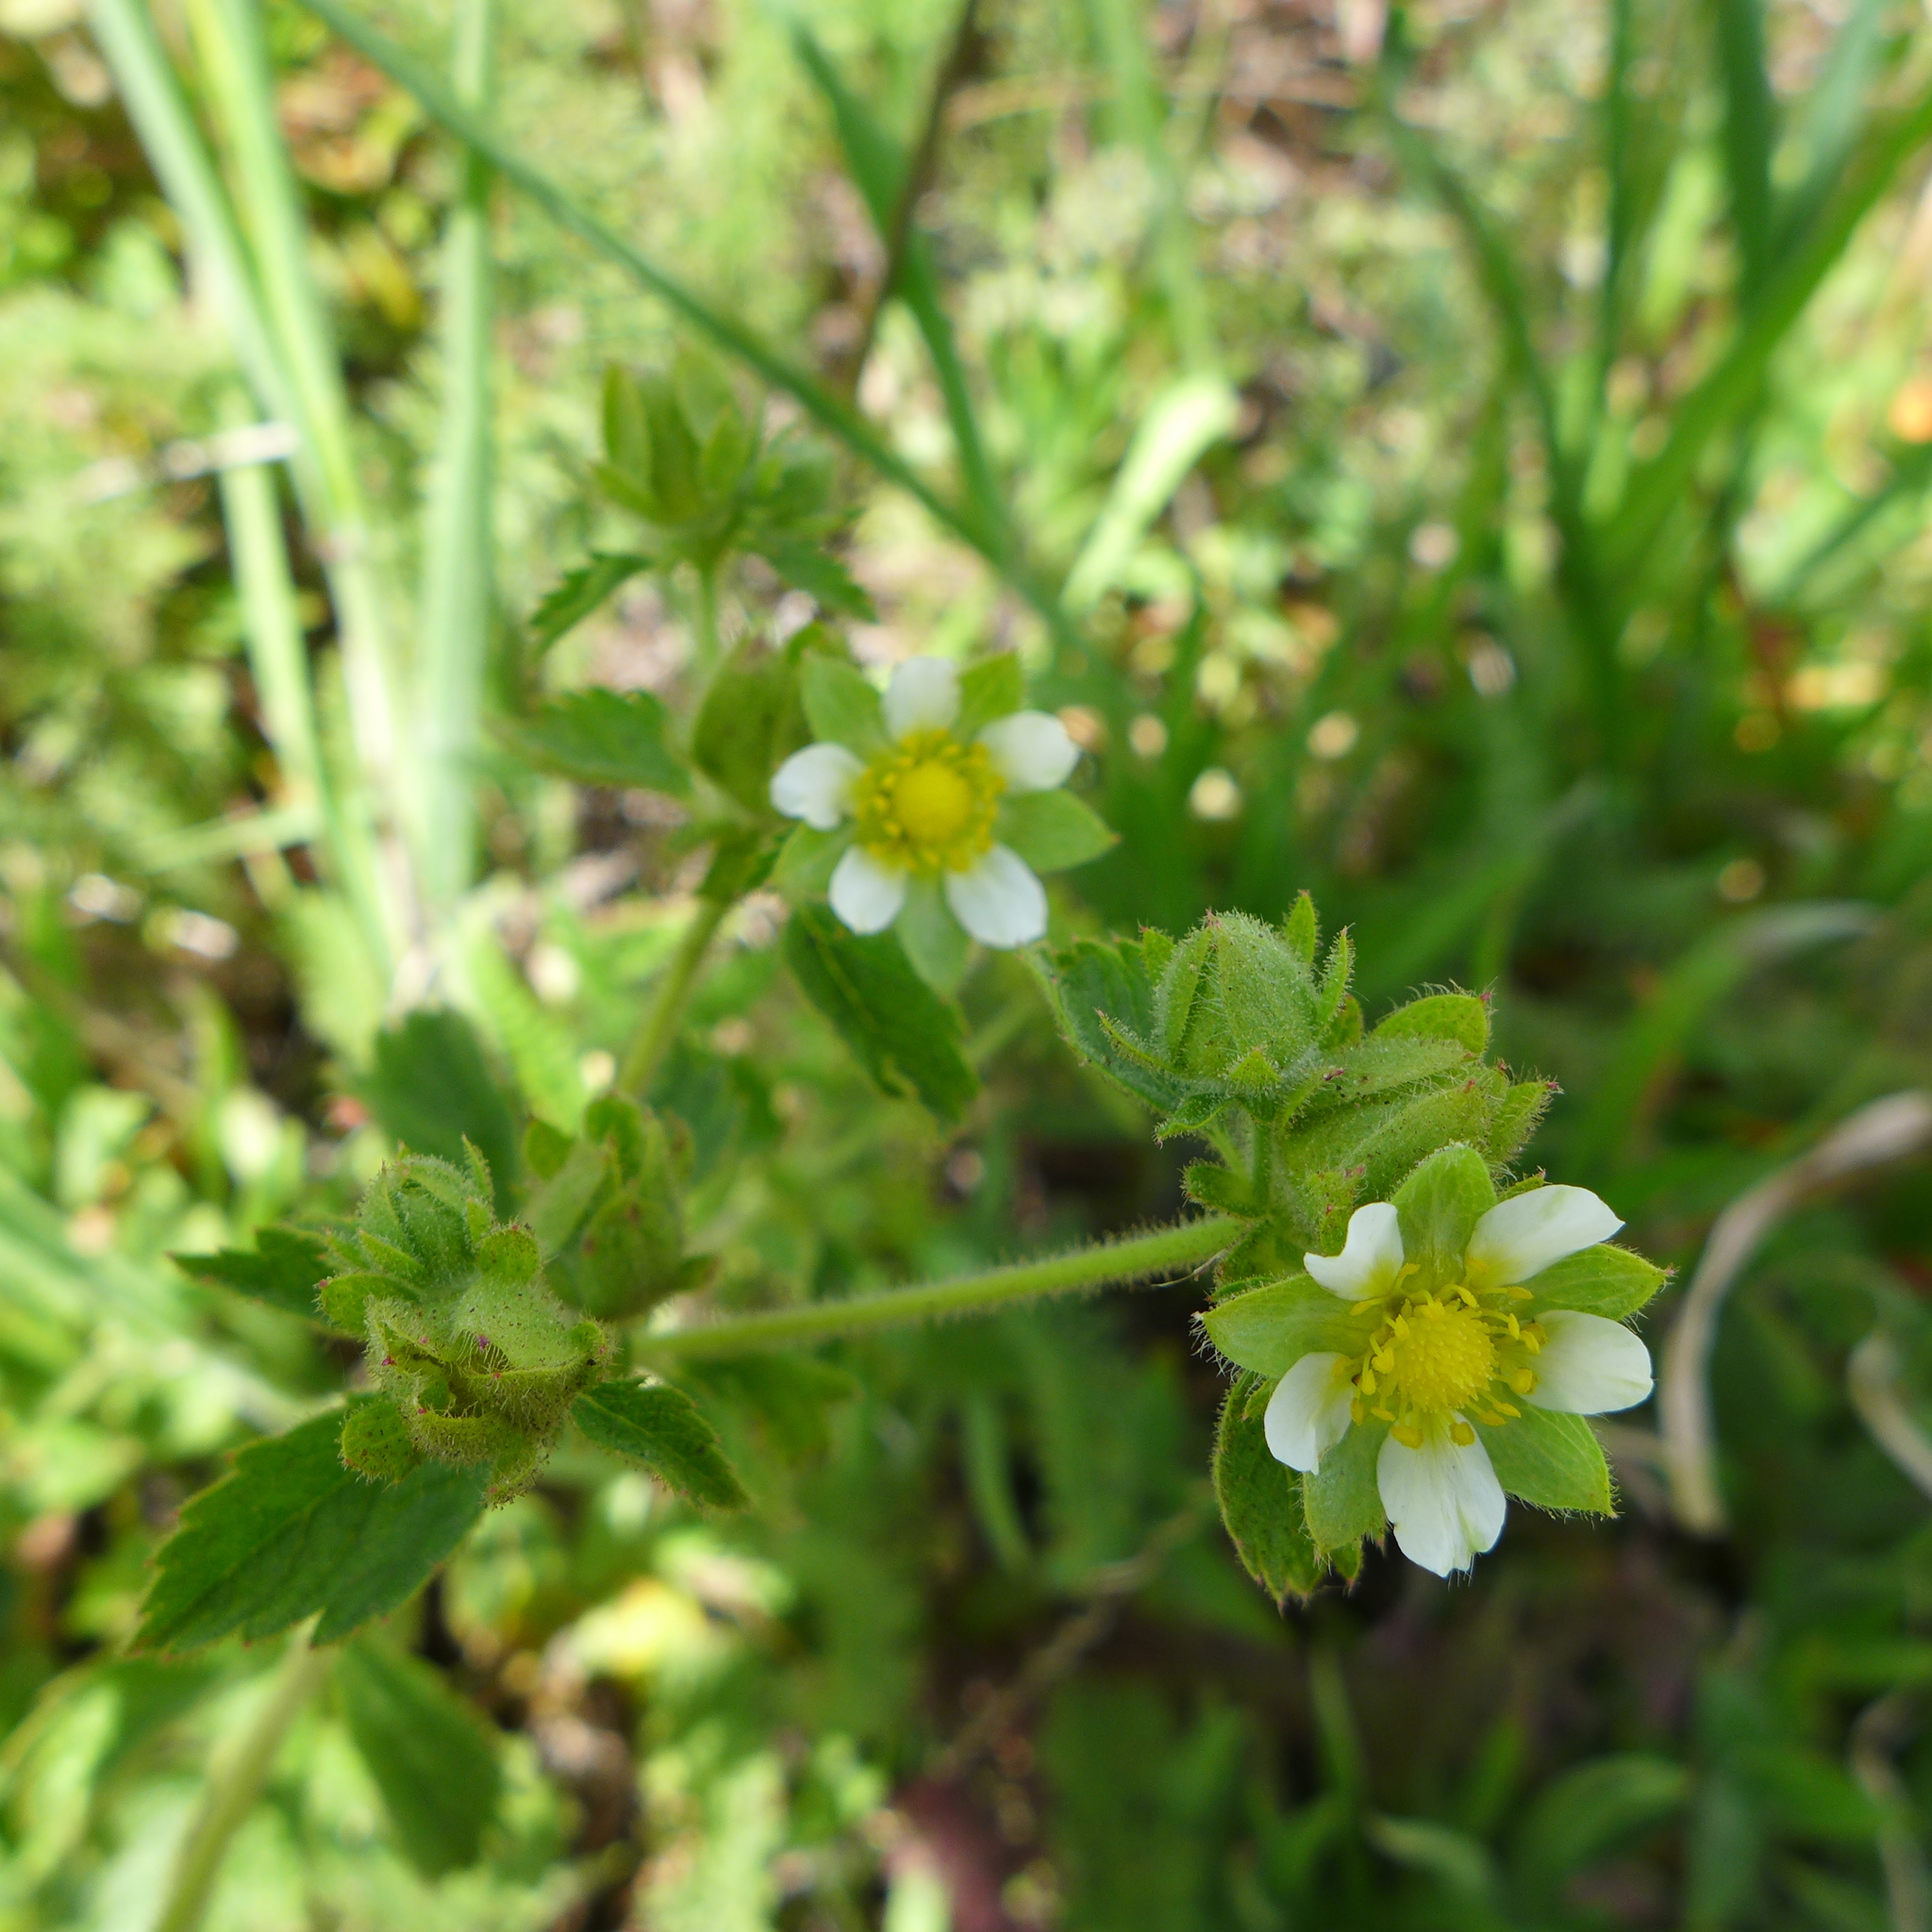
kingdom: Plantae
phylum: Tracheophyta
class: Magnoliopsida
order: Rosales
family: Rosaceae
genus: Drymocallis
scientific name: Drymocallis glandulosa
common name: Sticky cinquefoil
